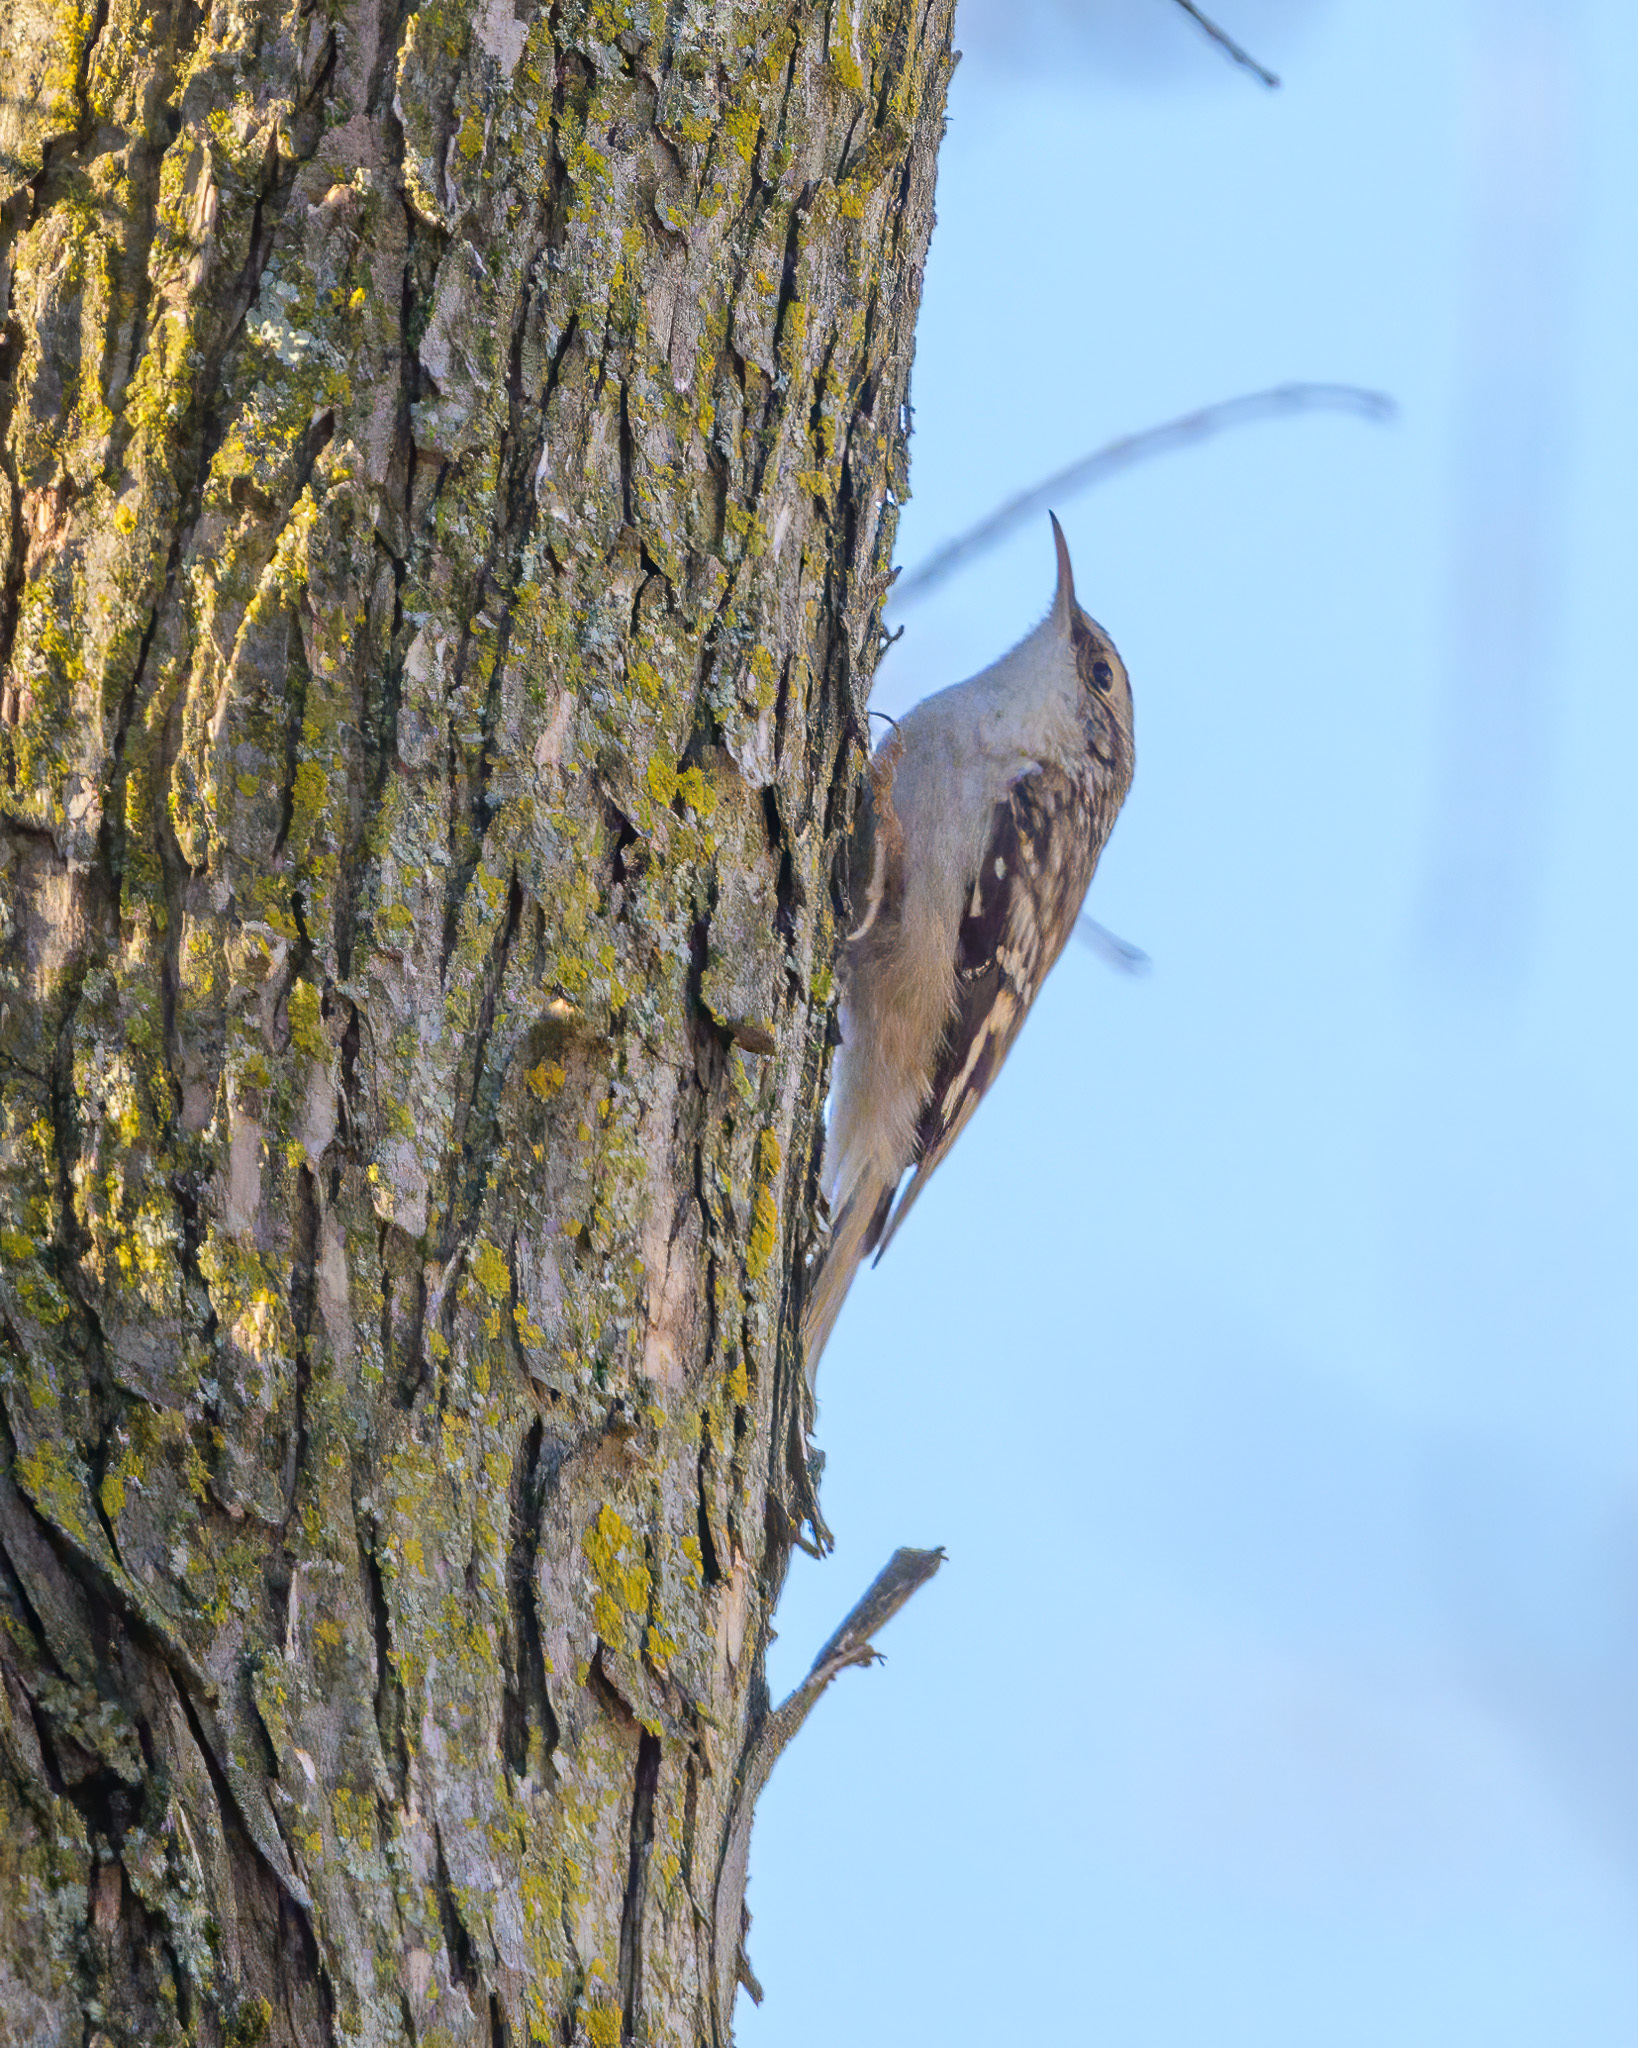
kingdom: Animalia
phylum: Chordata
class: Aves
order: Passeriformes
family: Certhiidae
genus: Certhia
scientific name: Certhia americana
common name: Brown creeper
